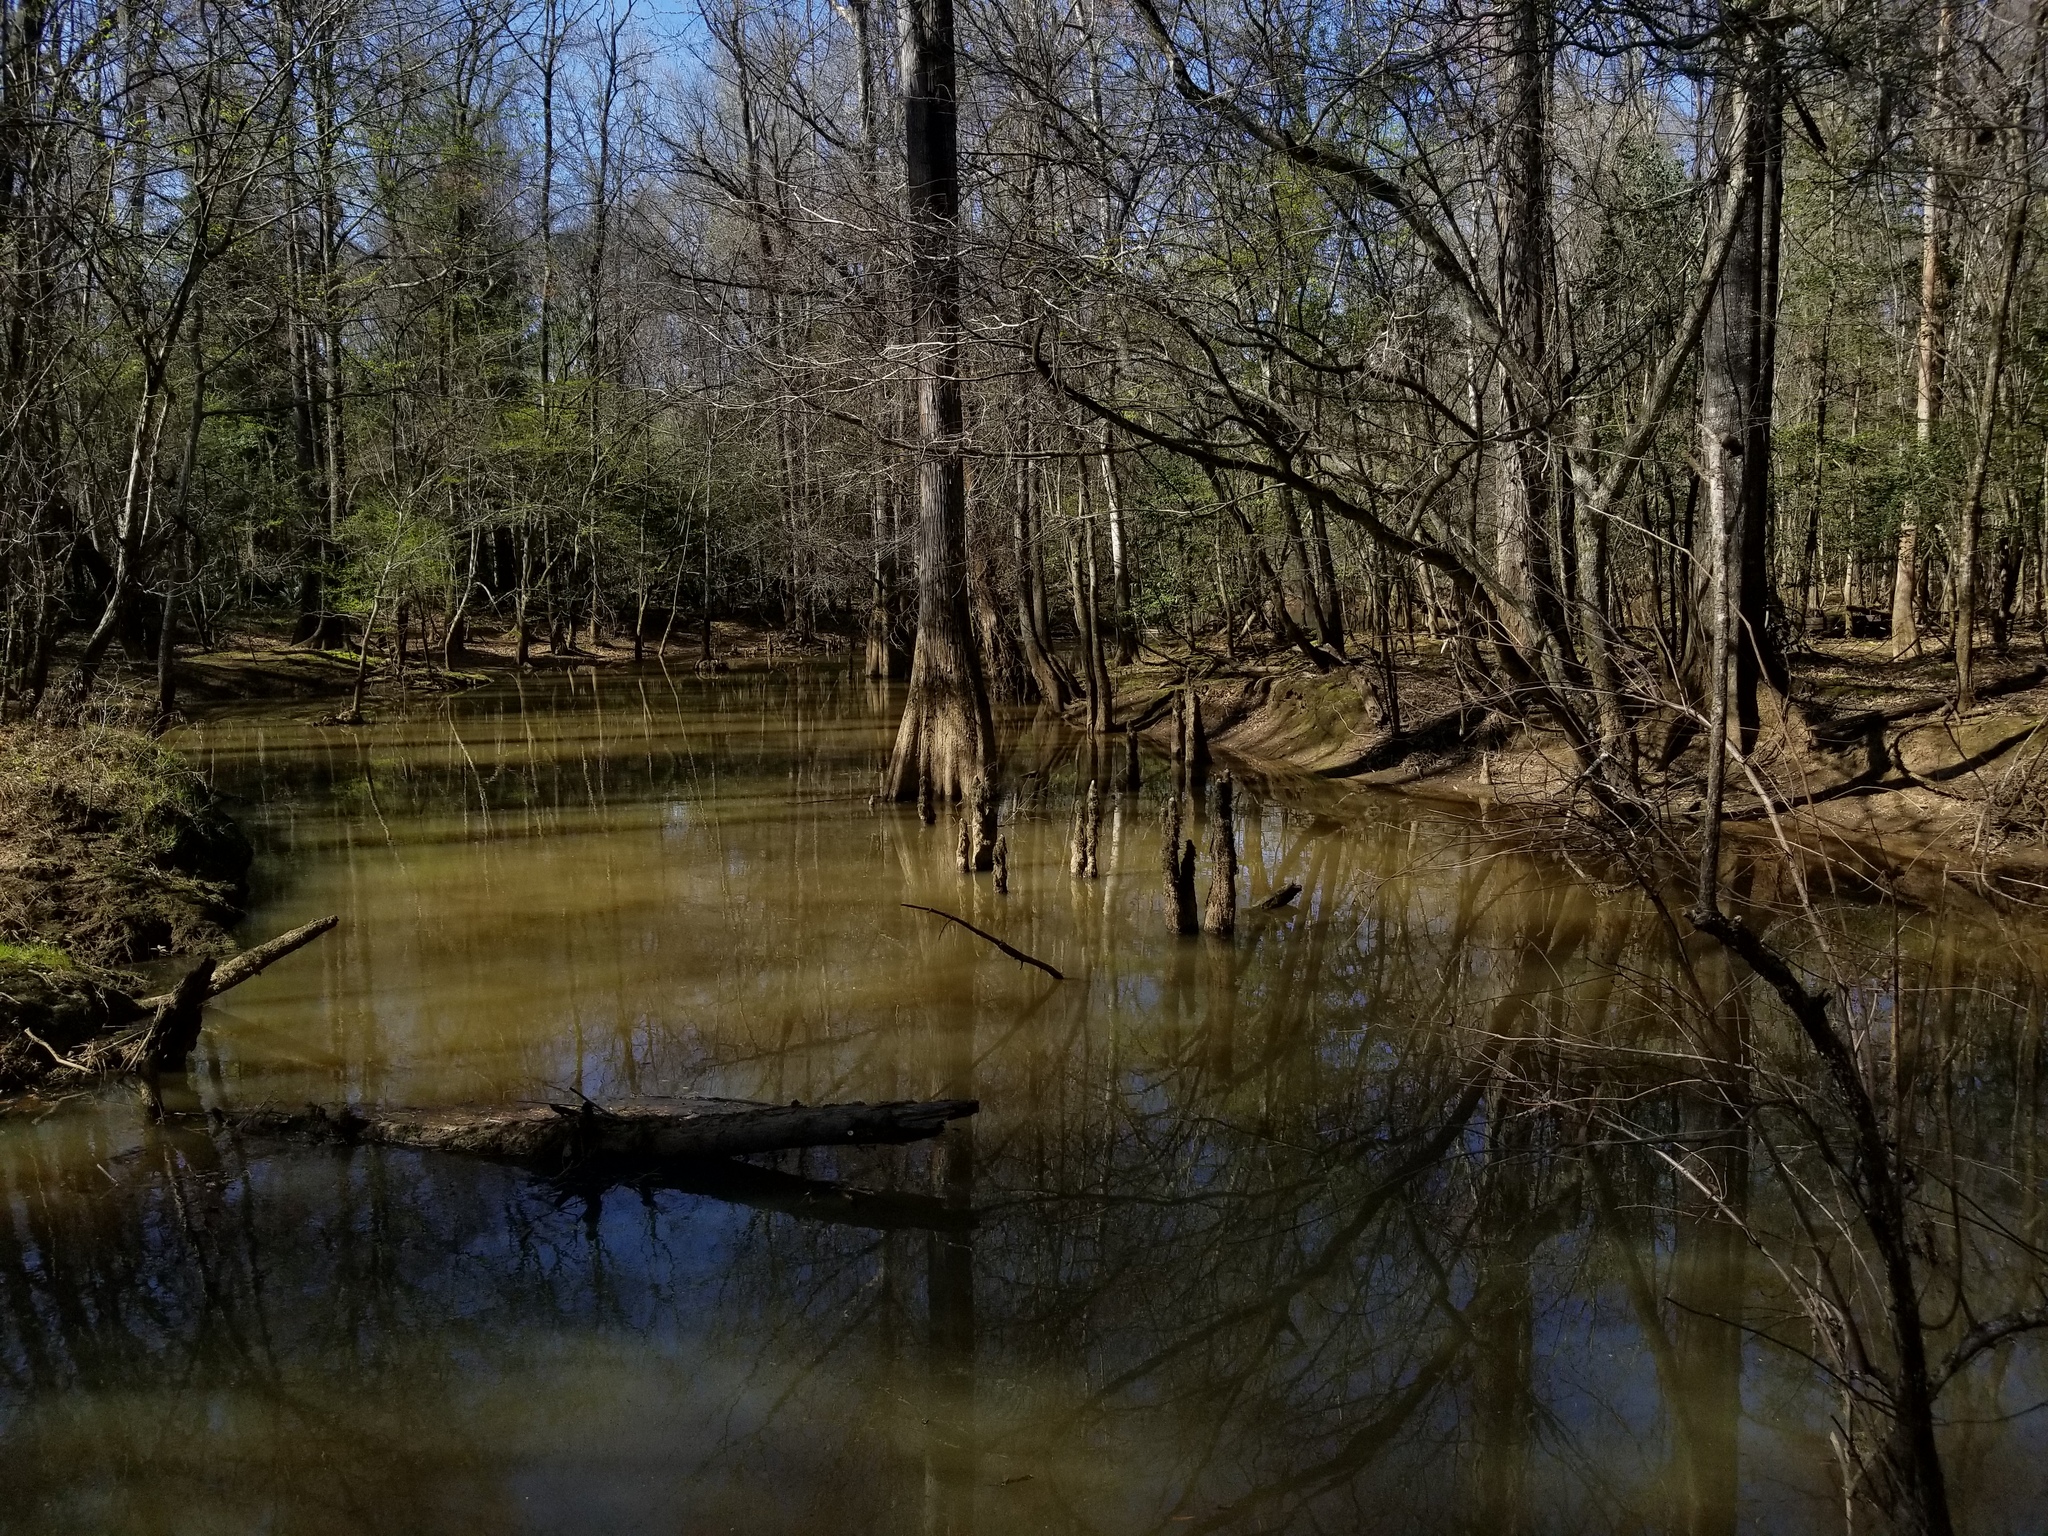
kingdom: Plantae
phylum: Tracheophyta
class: Pinopsida
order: Pinales
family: Cupressaceae
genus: Taxodium
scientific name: Taxodium distichum
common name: Bald cypress
